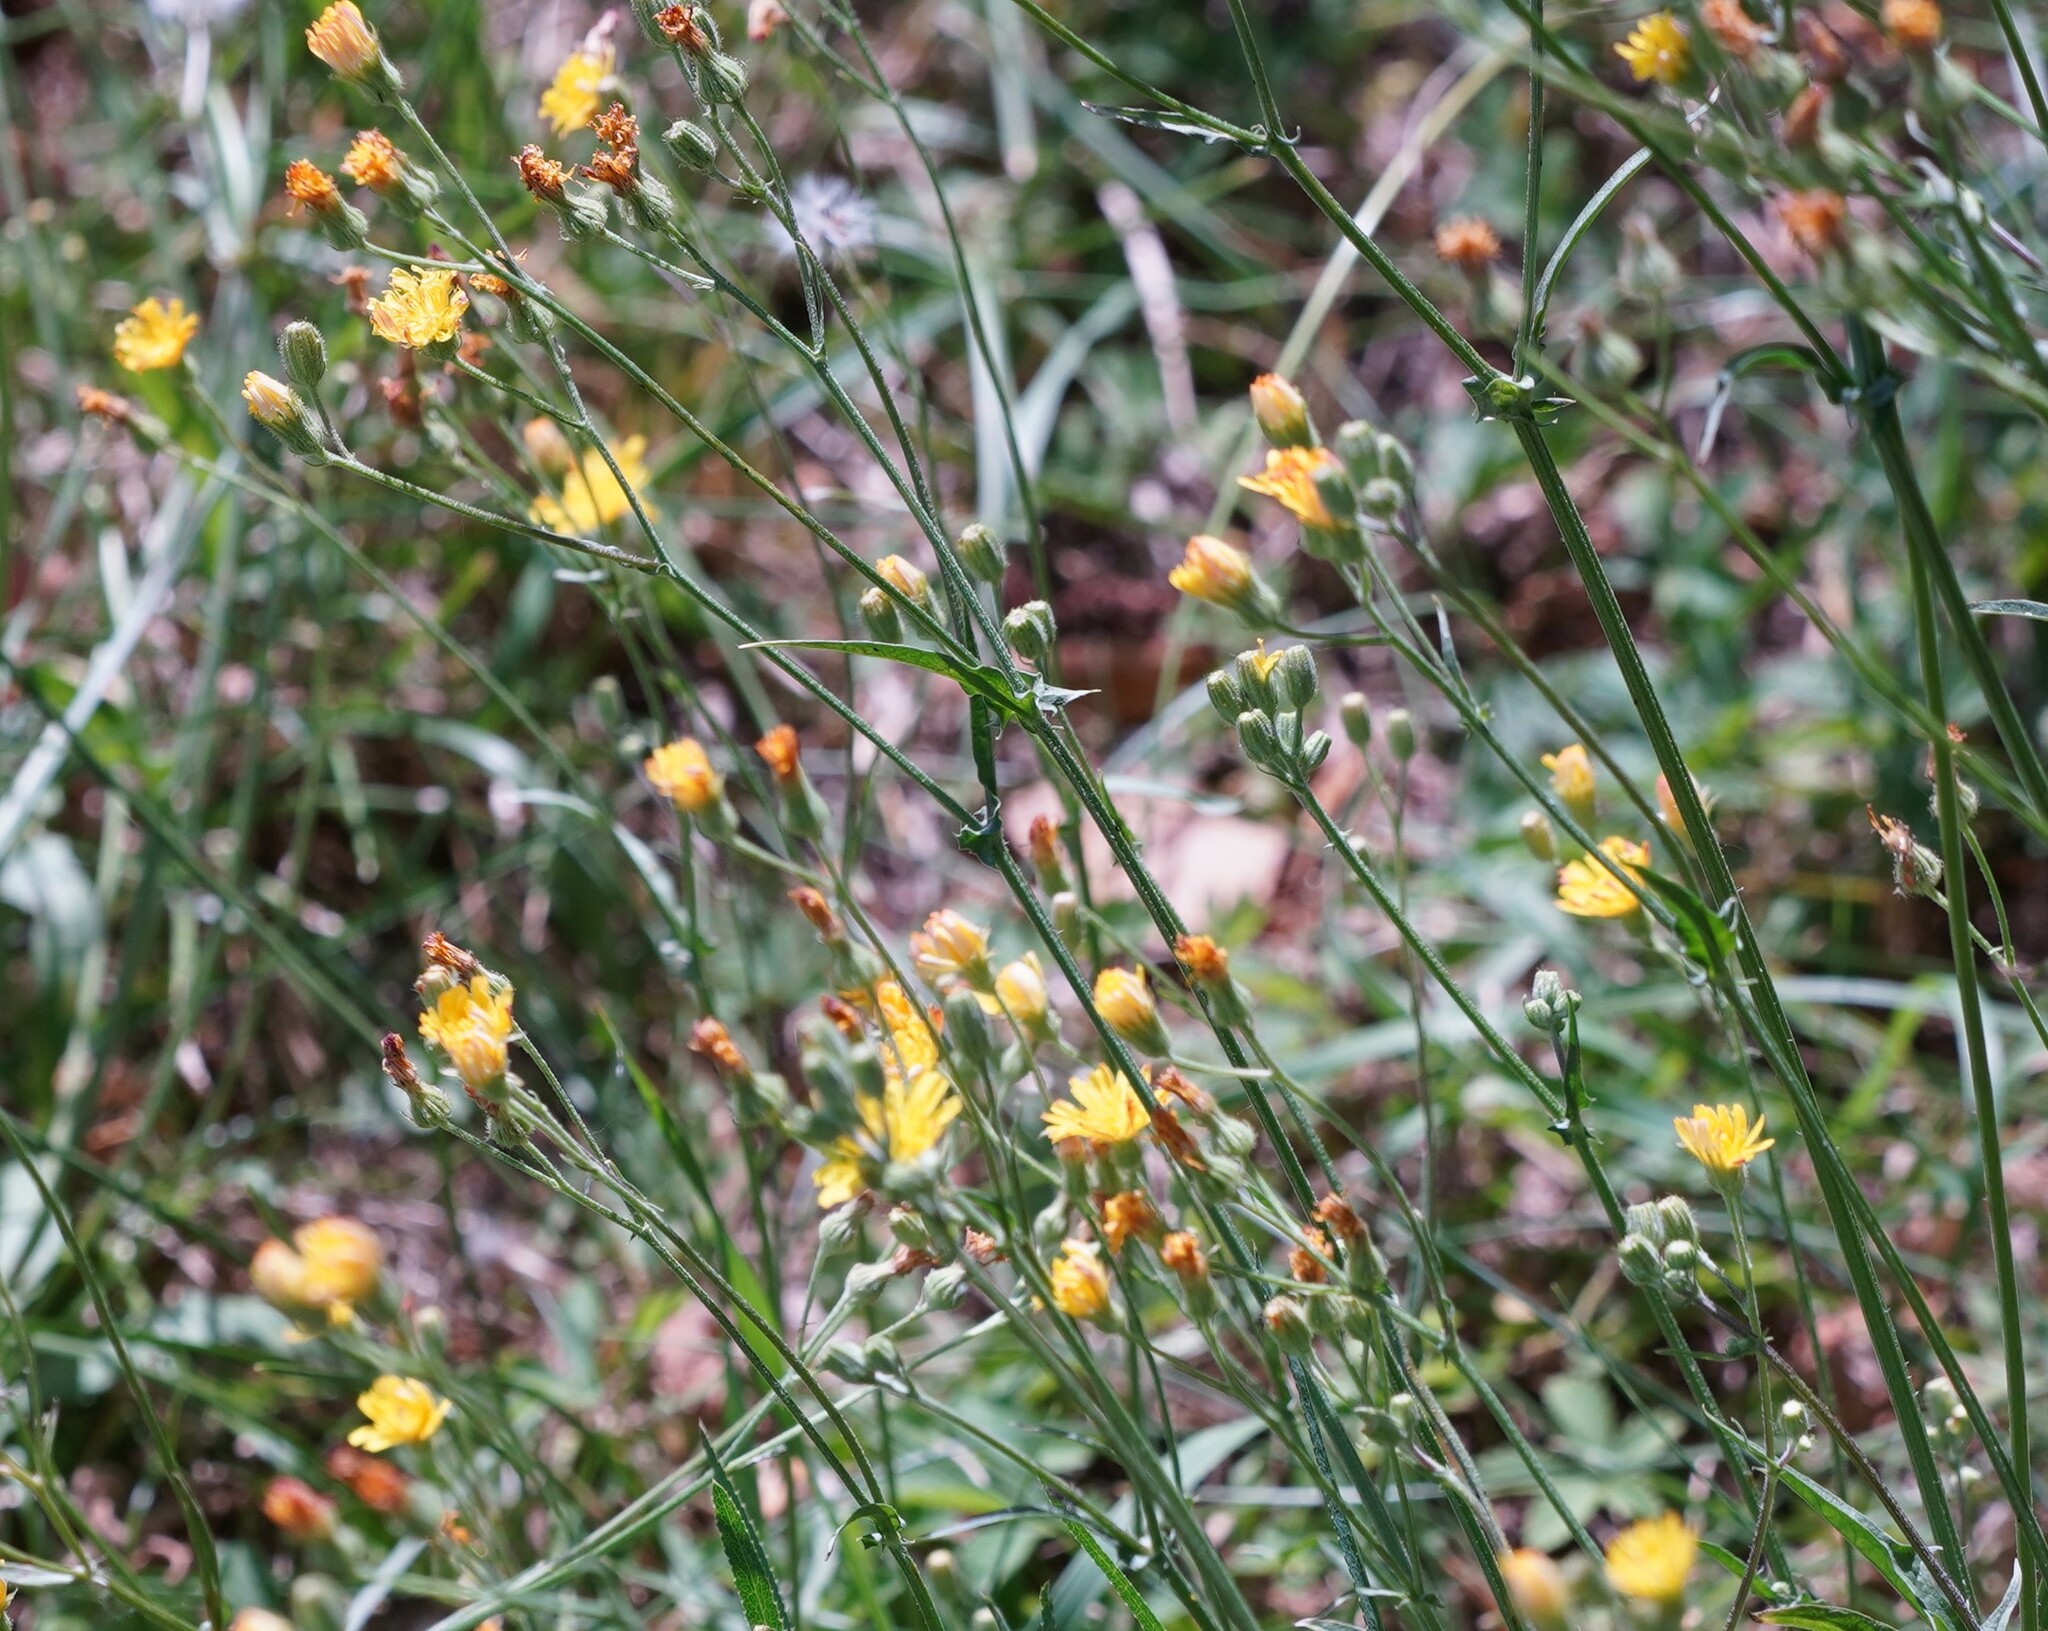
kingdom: Plantae
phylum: Tracheophyta
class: Magnoliopsida
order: Asterales
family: Asteraceae
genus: Crepis
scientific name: Crepis capillaris
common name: Smooth hawksbeard
